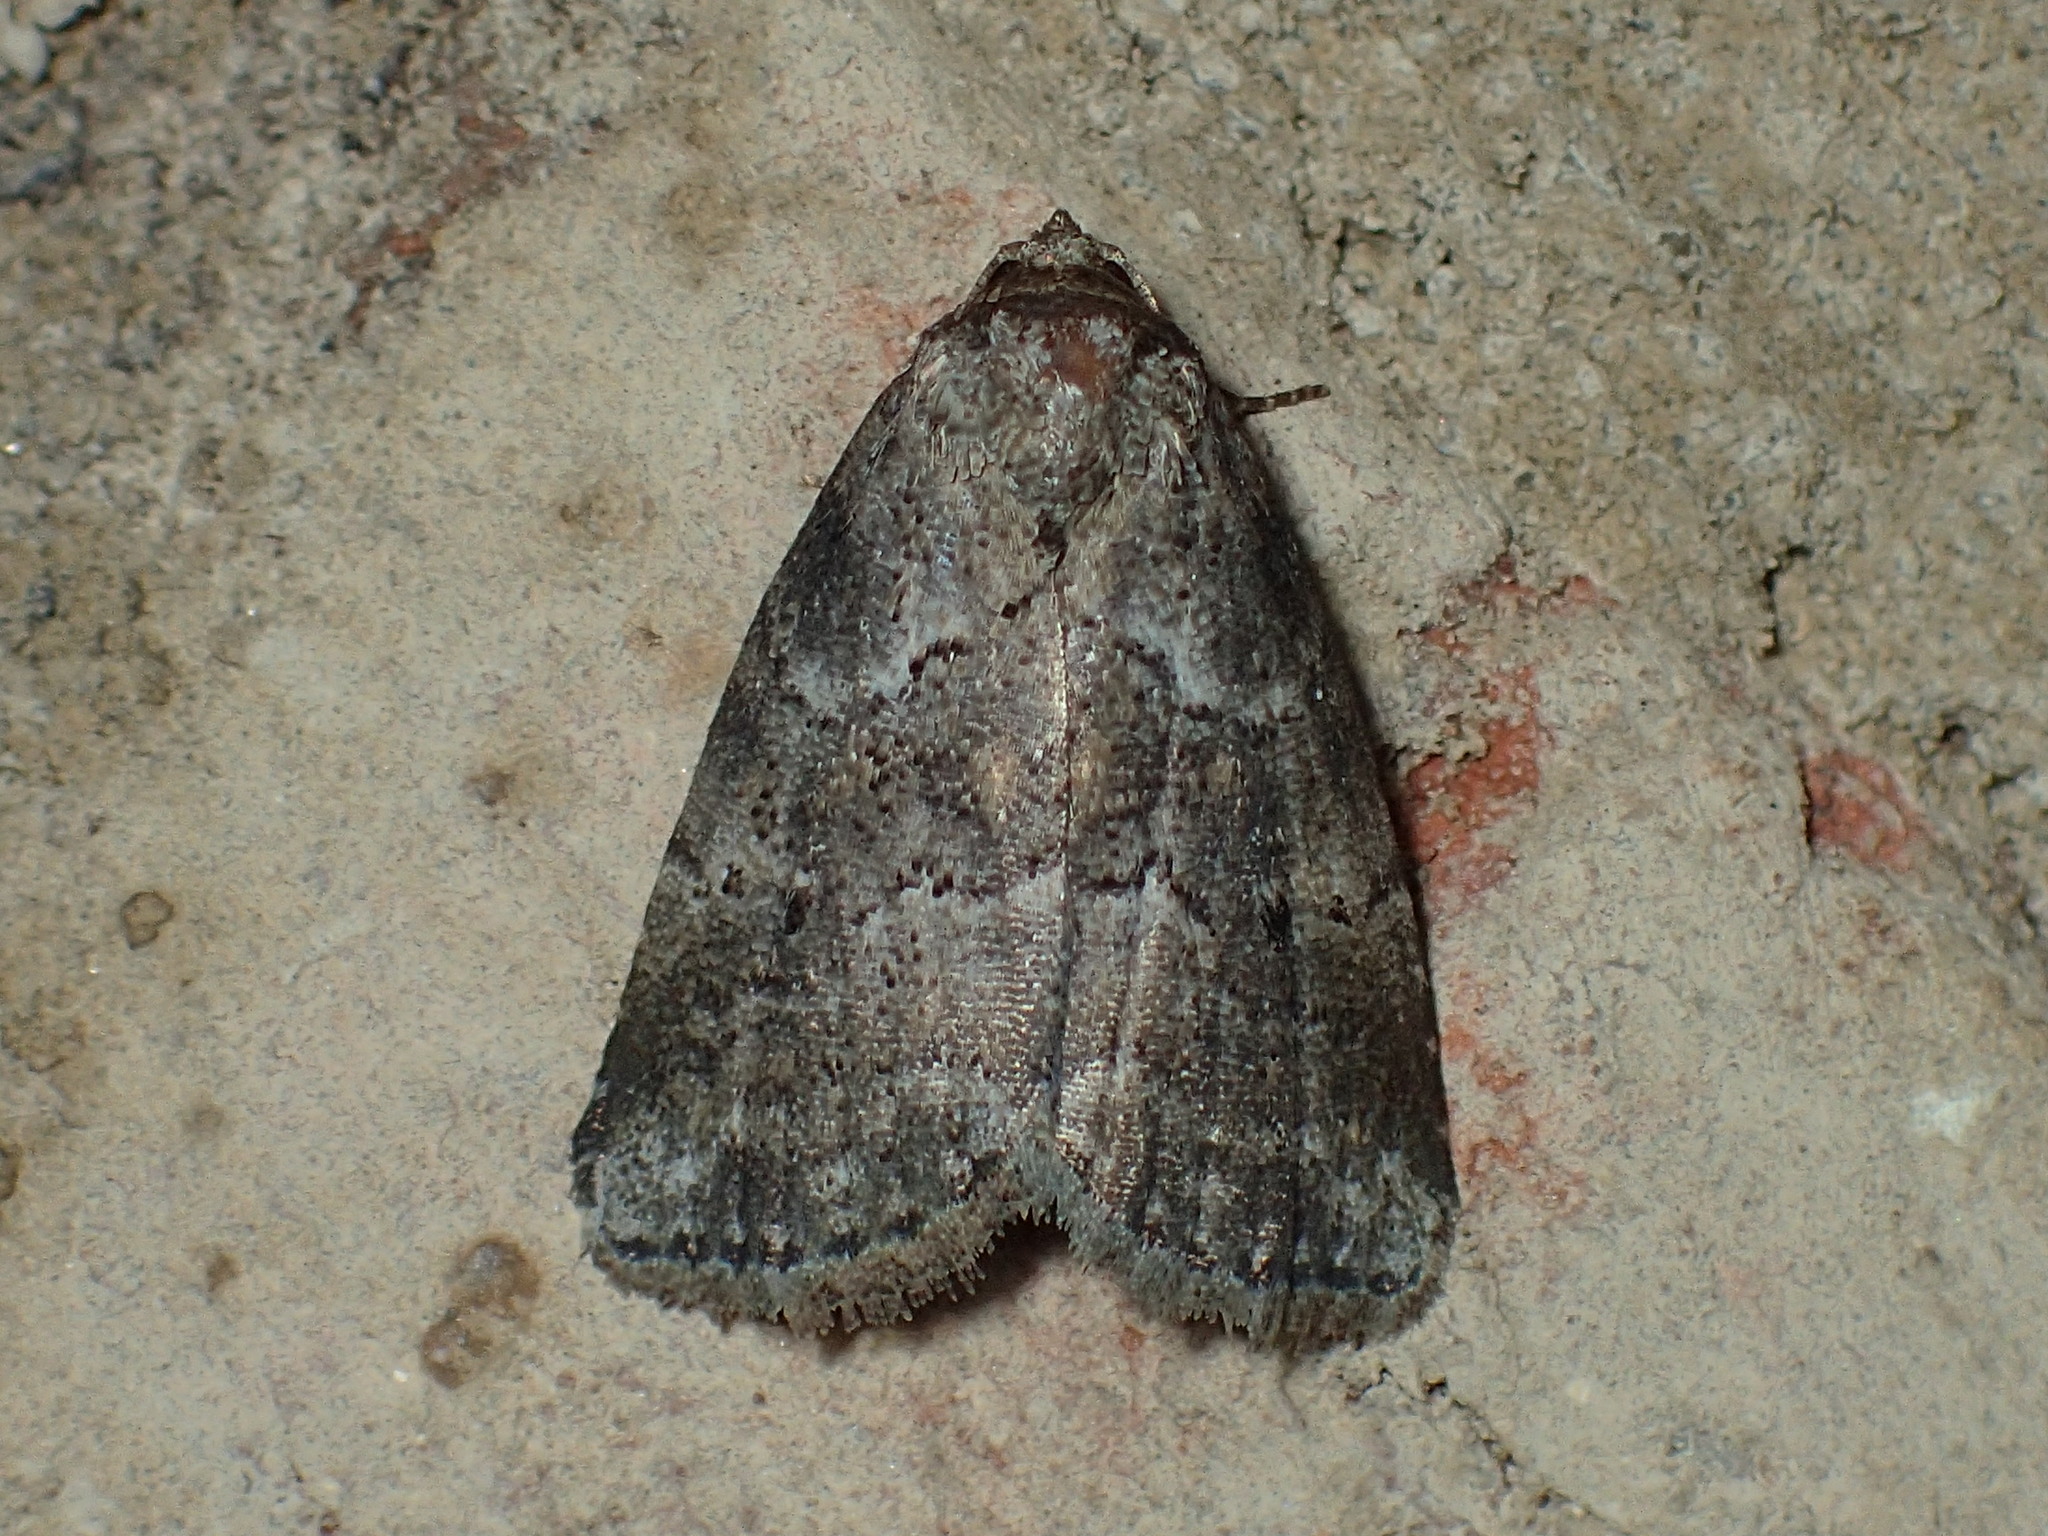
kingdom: Animalia
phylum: Arthropoda
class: Insecta
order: Lepidoptera
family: Erebidae
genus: Hyperstrotia
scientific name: Hyperstrotia nana
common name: White-lined graylet
